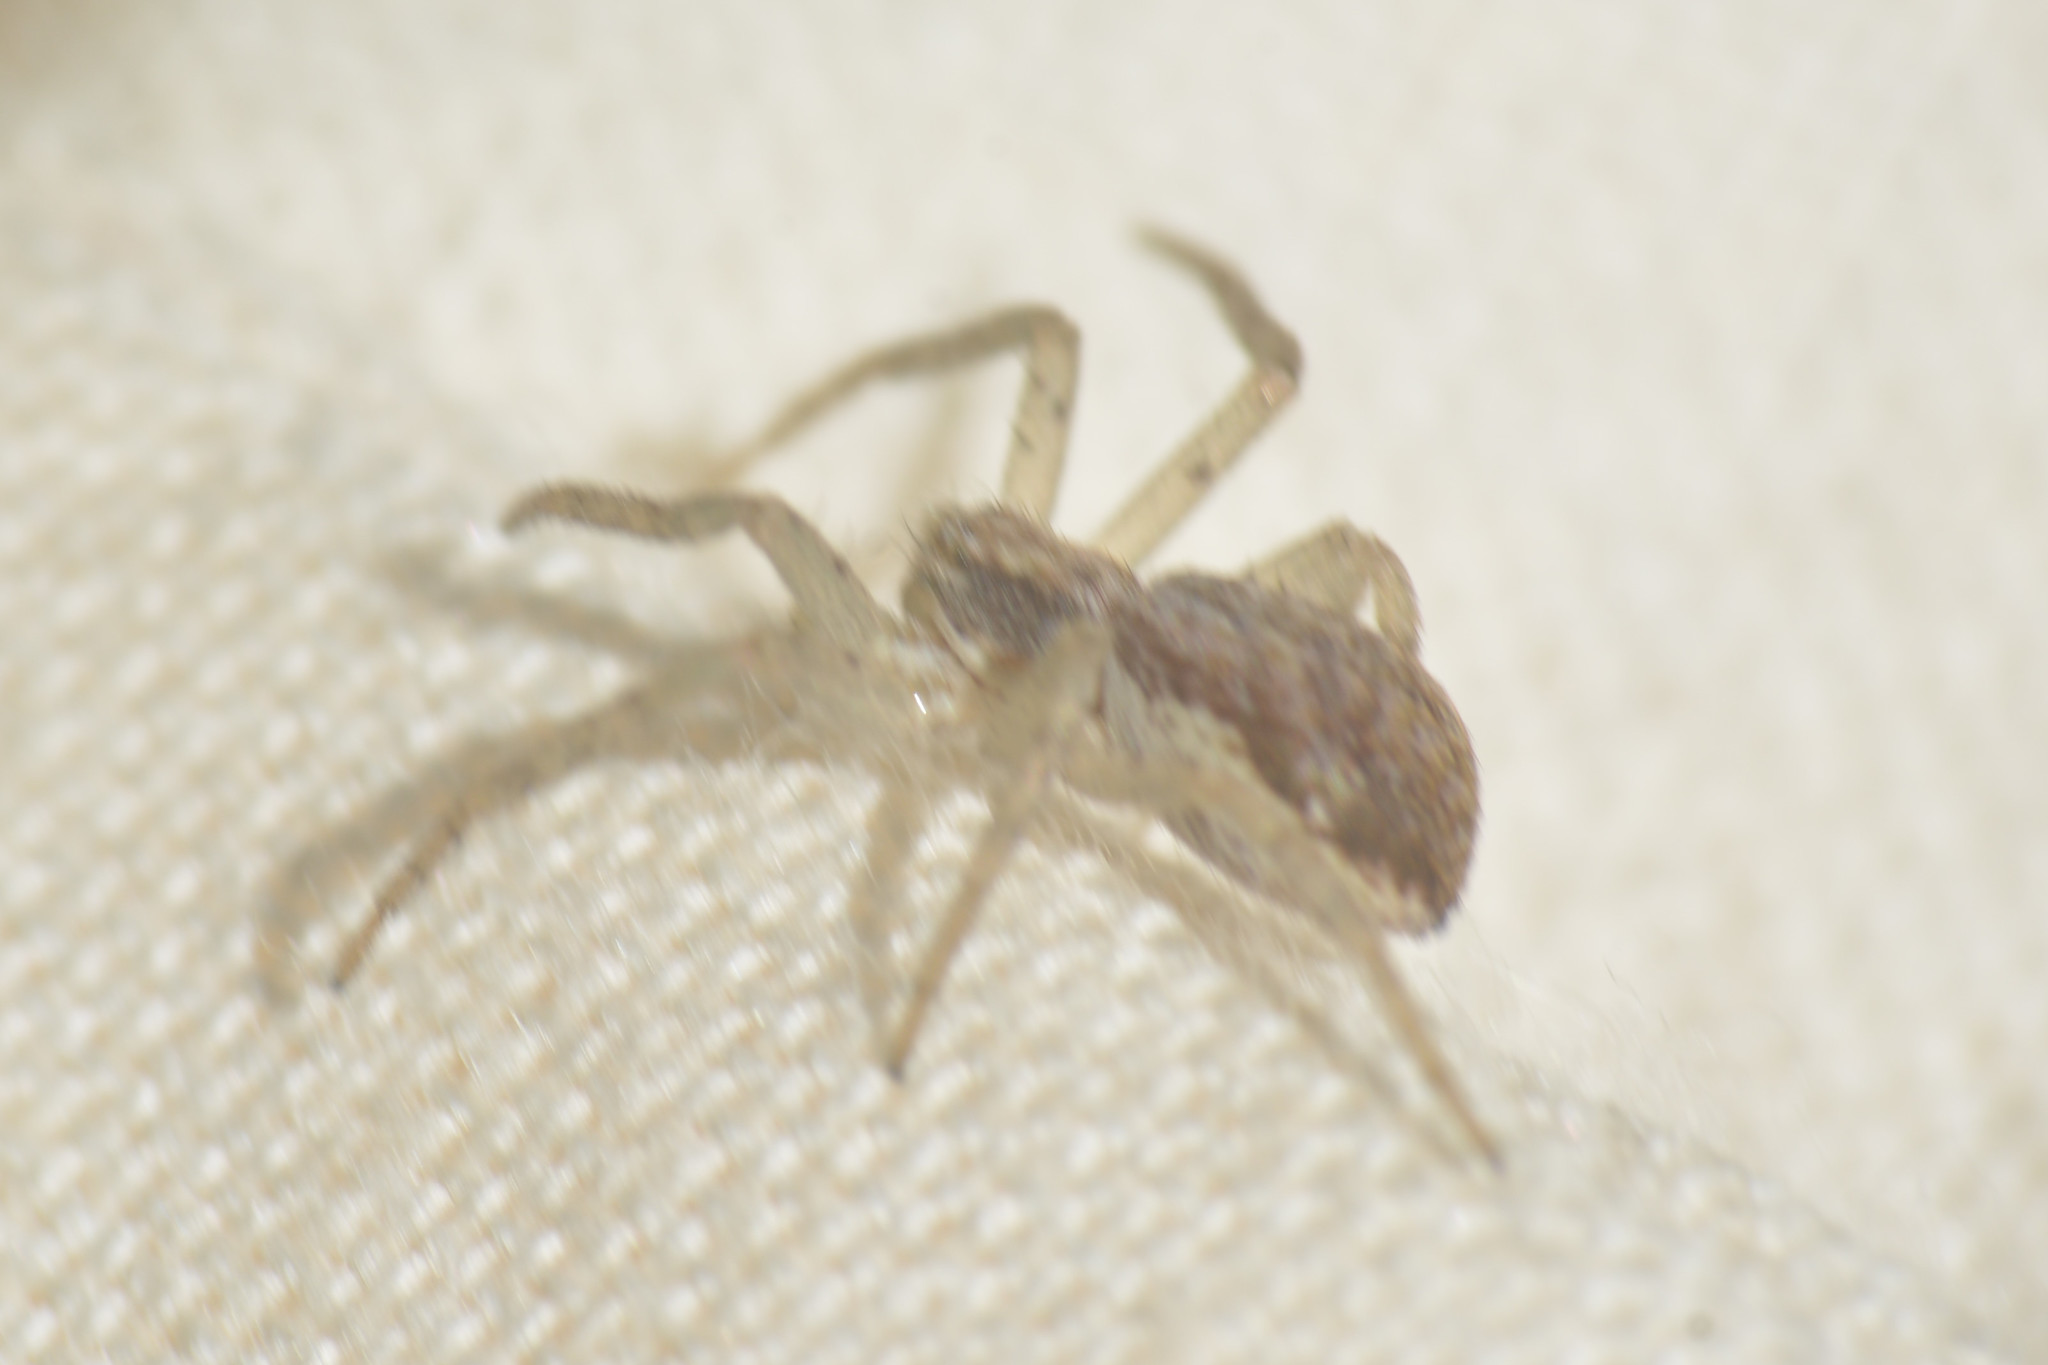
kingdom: Animalia
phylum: Arthropoda
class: Arachnida
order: Araneae
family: Philodromidae
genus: Philodromus
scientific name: Philodromus dispar
